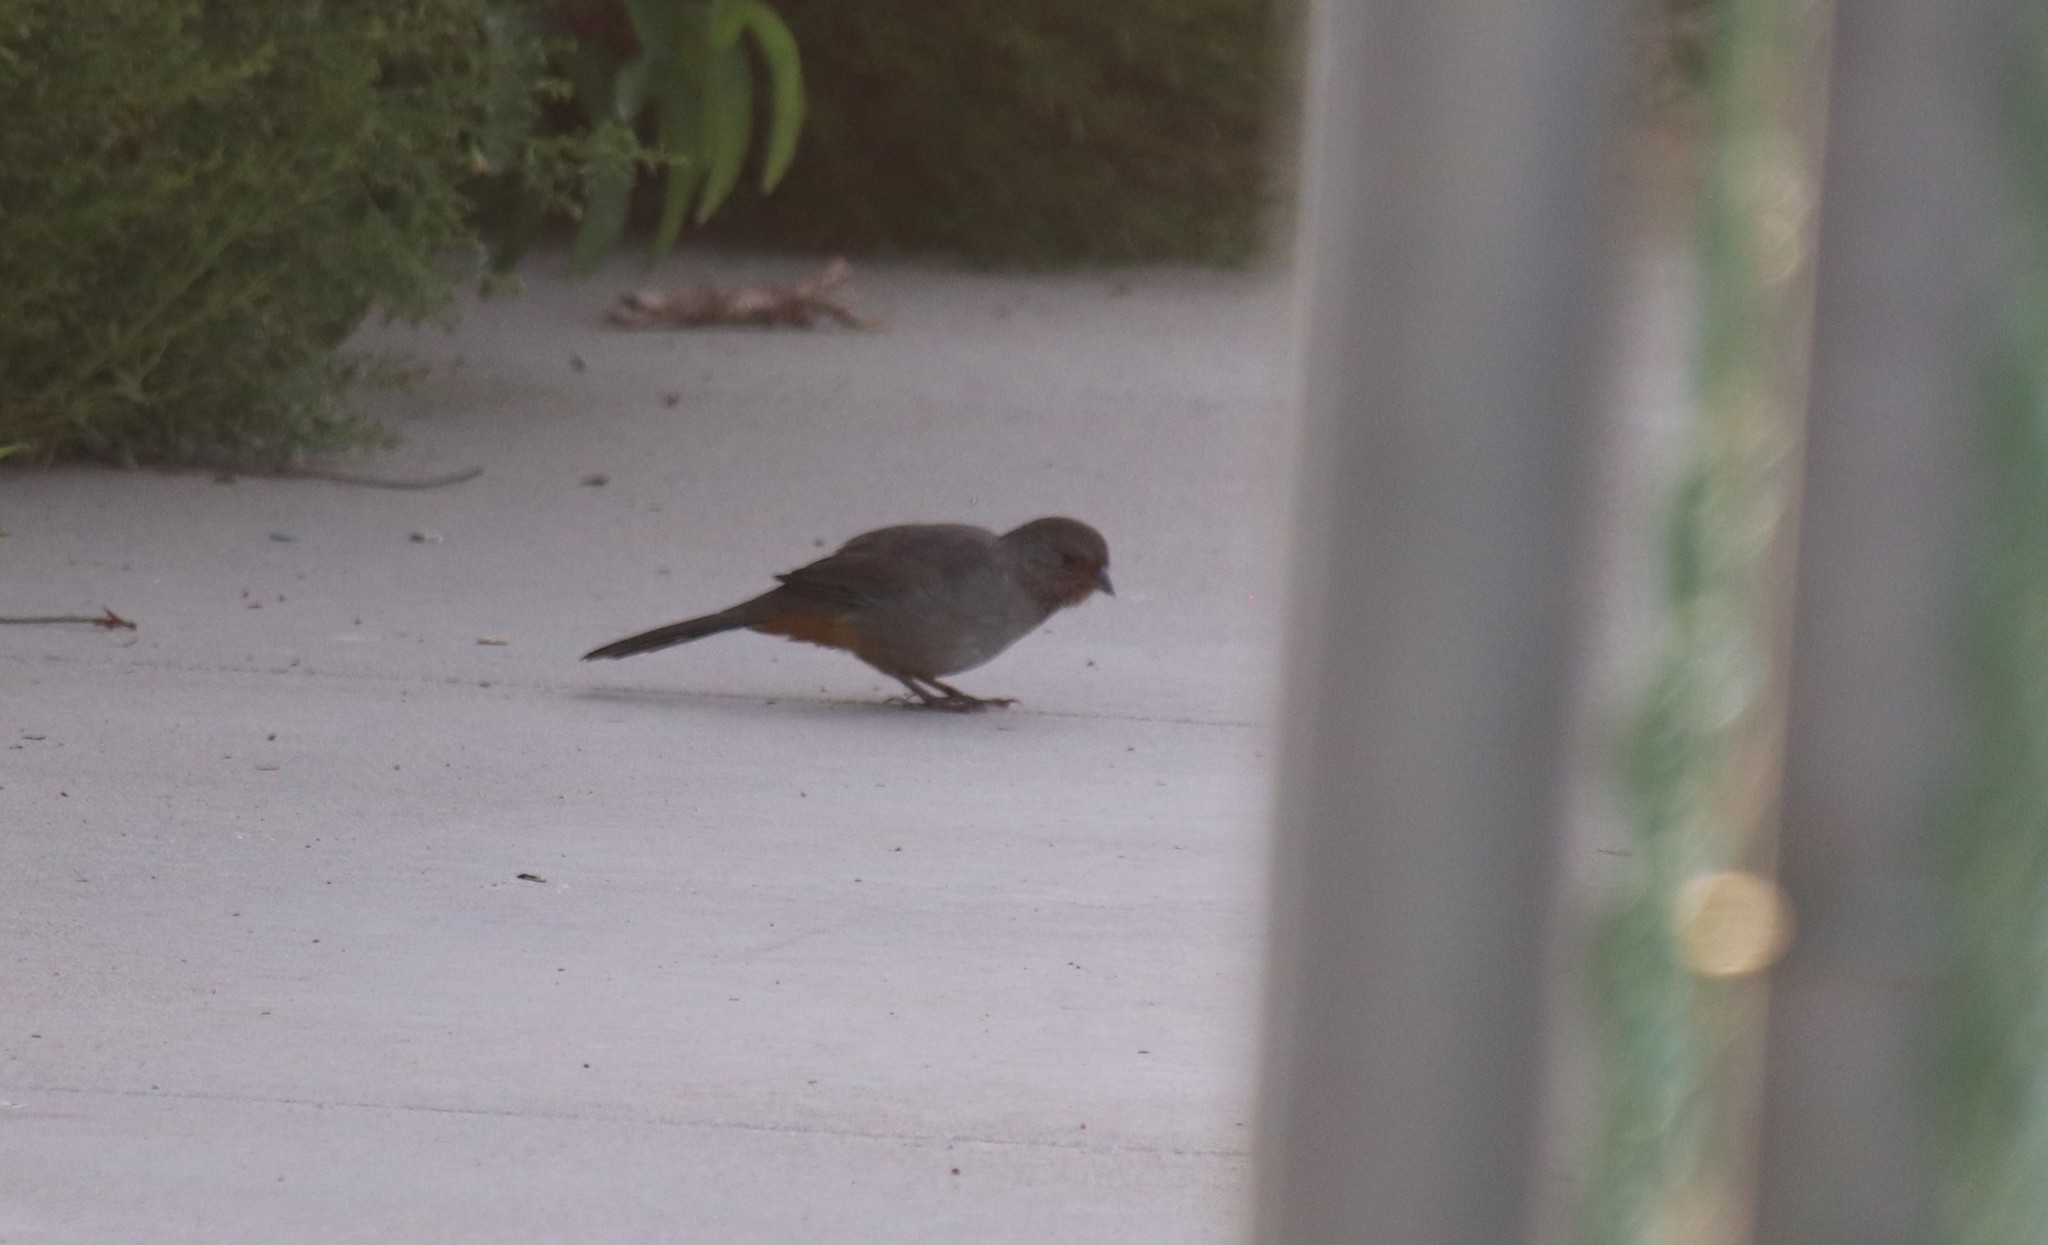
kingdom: Animalia
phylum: Chordata
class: Aves
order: Passeriformes
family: Passerellidae
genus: Melozone
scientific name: Melozone crissalis
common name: California towhee
